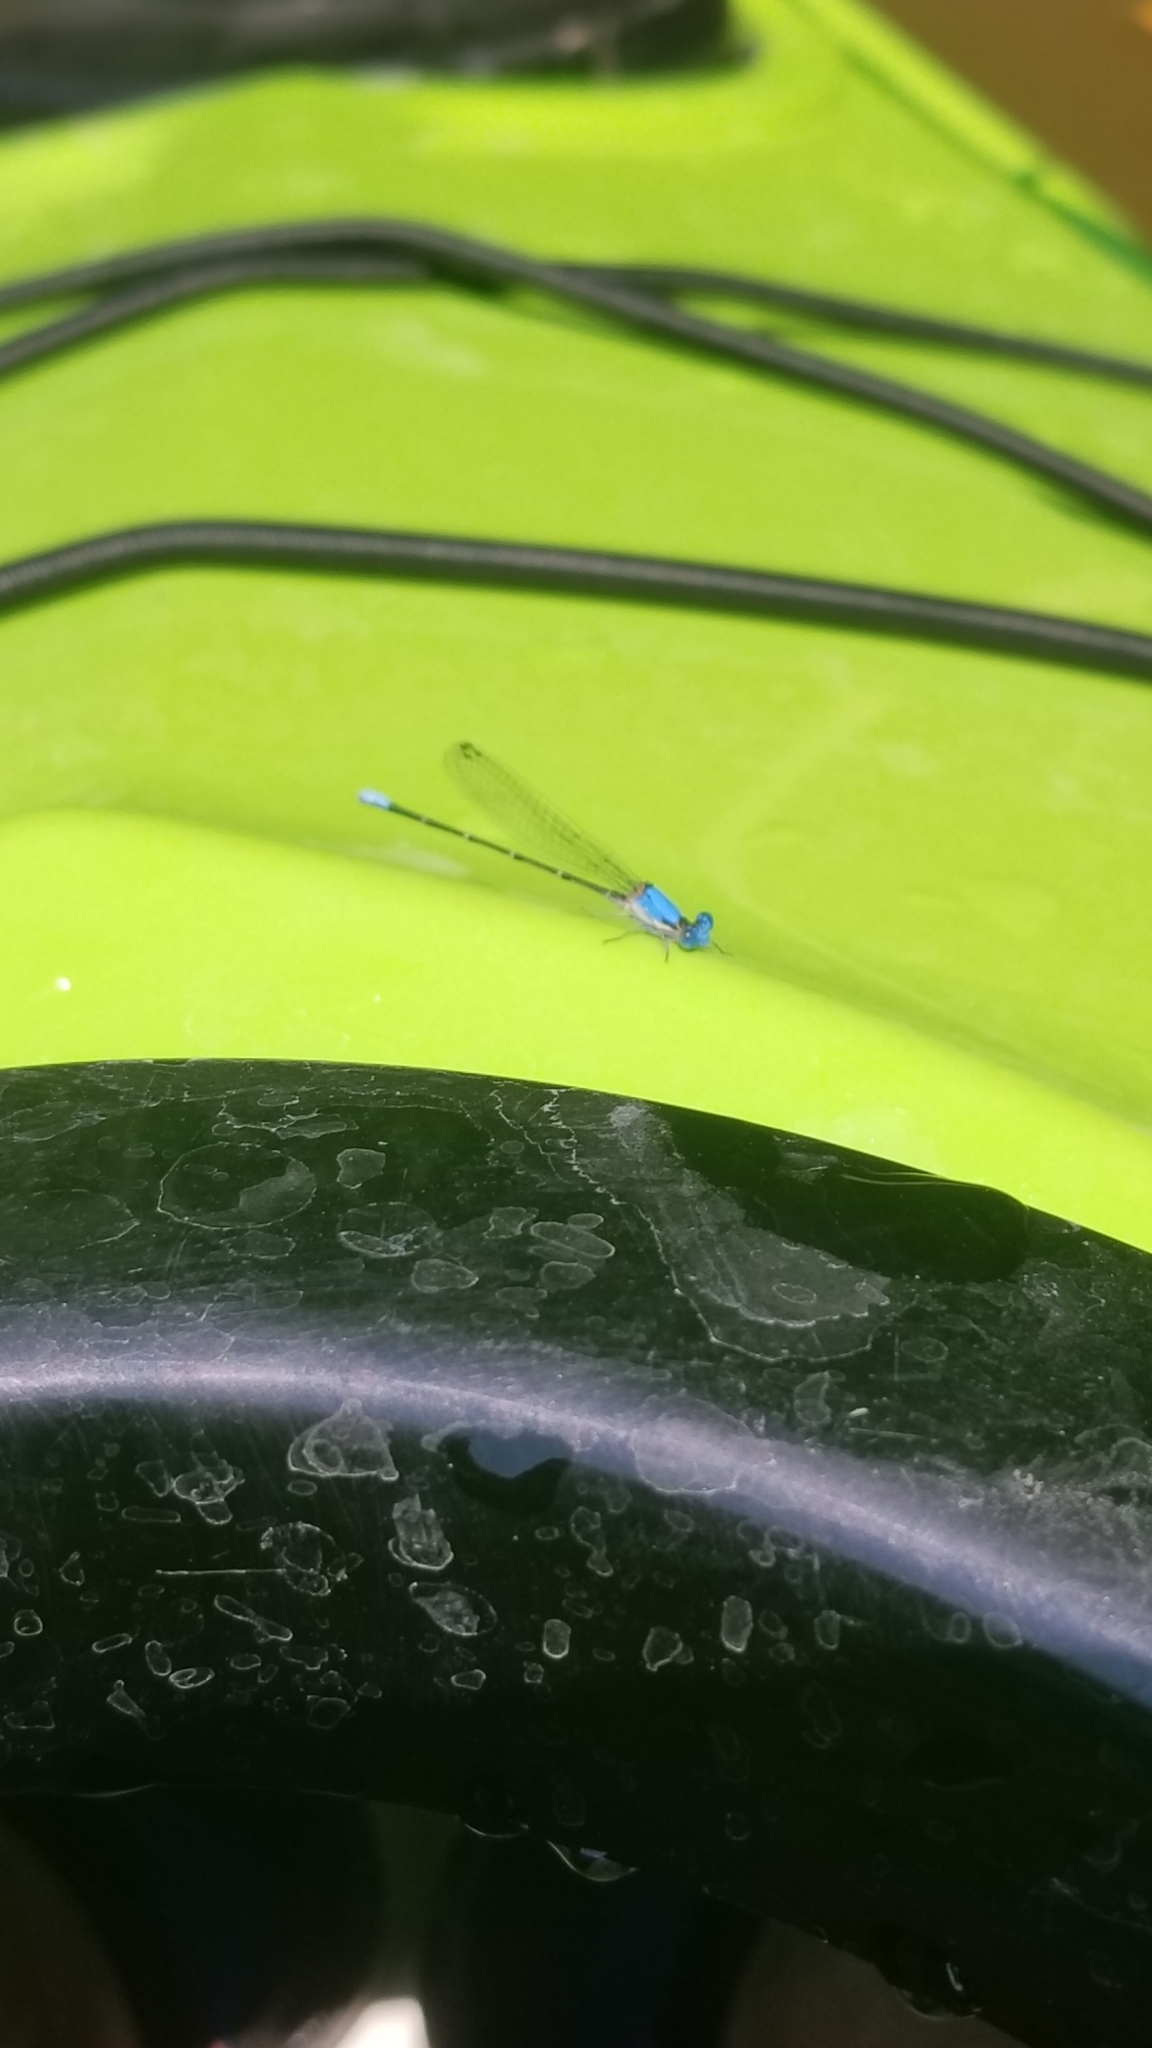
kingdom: Animalia
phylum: Arthropoda
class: Insecta
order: Odonata
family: Coenagrionidae
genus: Argia
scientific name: Argia apicalis
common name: Blue-fronted dancer
